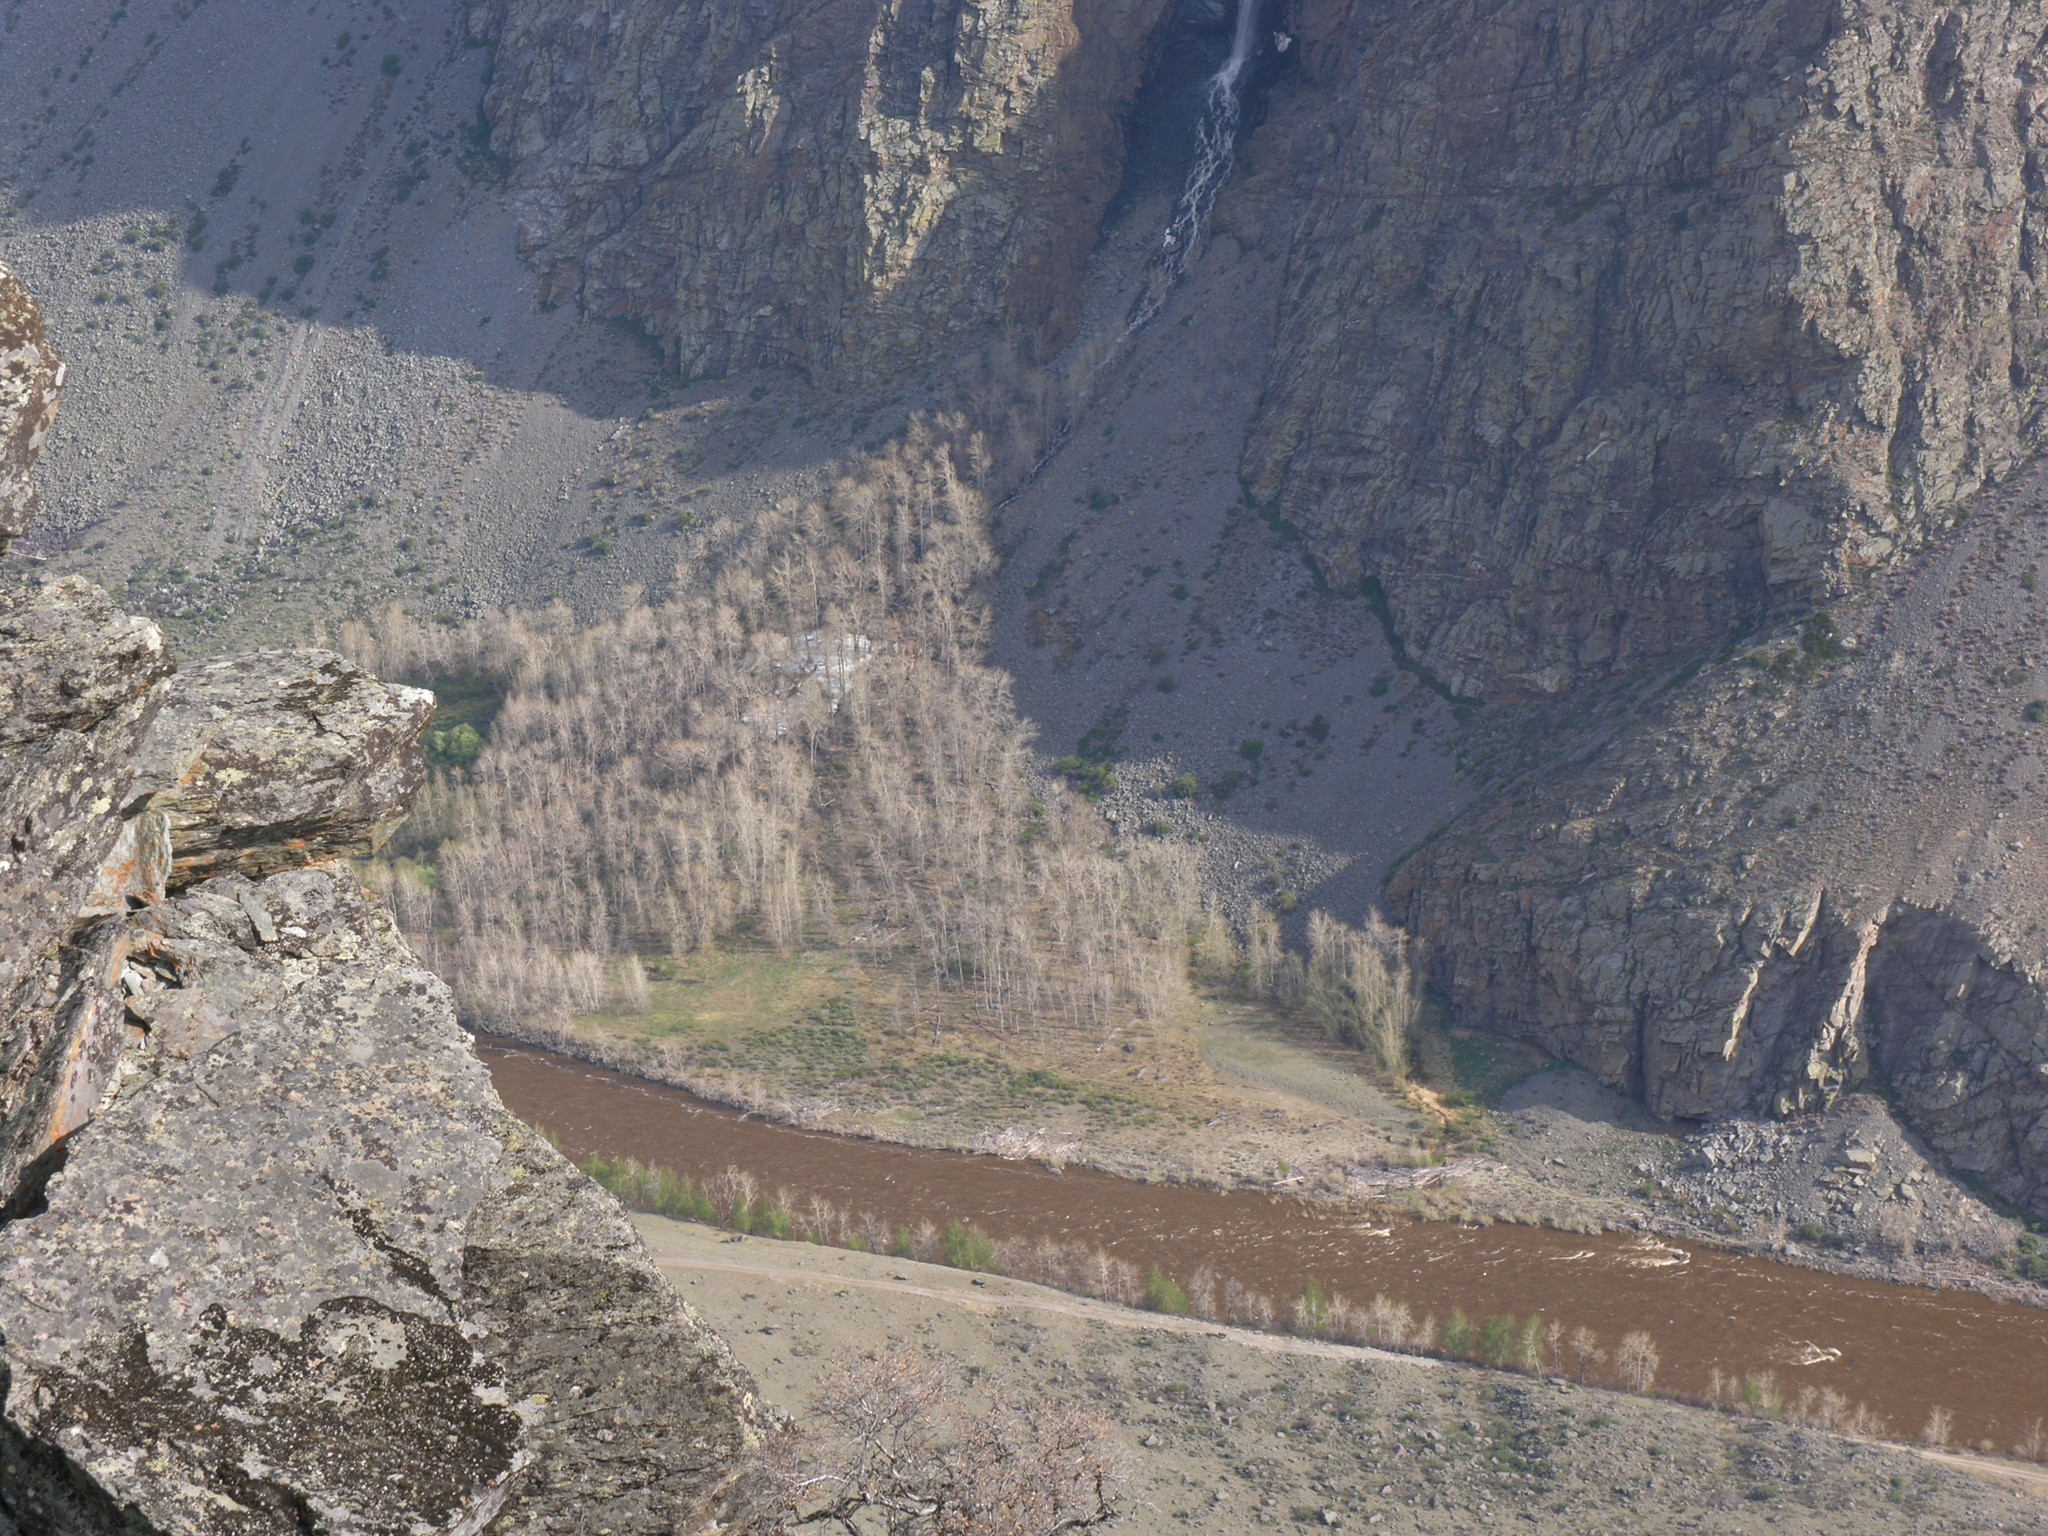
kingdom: Plantae
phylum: Tracheophyta
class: Magnoliopsida
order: Malpighiales
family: Salicaceae
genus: Populus
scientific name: Populus laurifolia
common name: Laurel-leaf poplar
